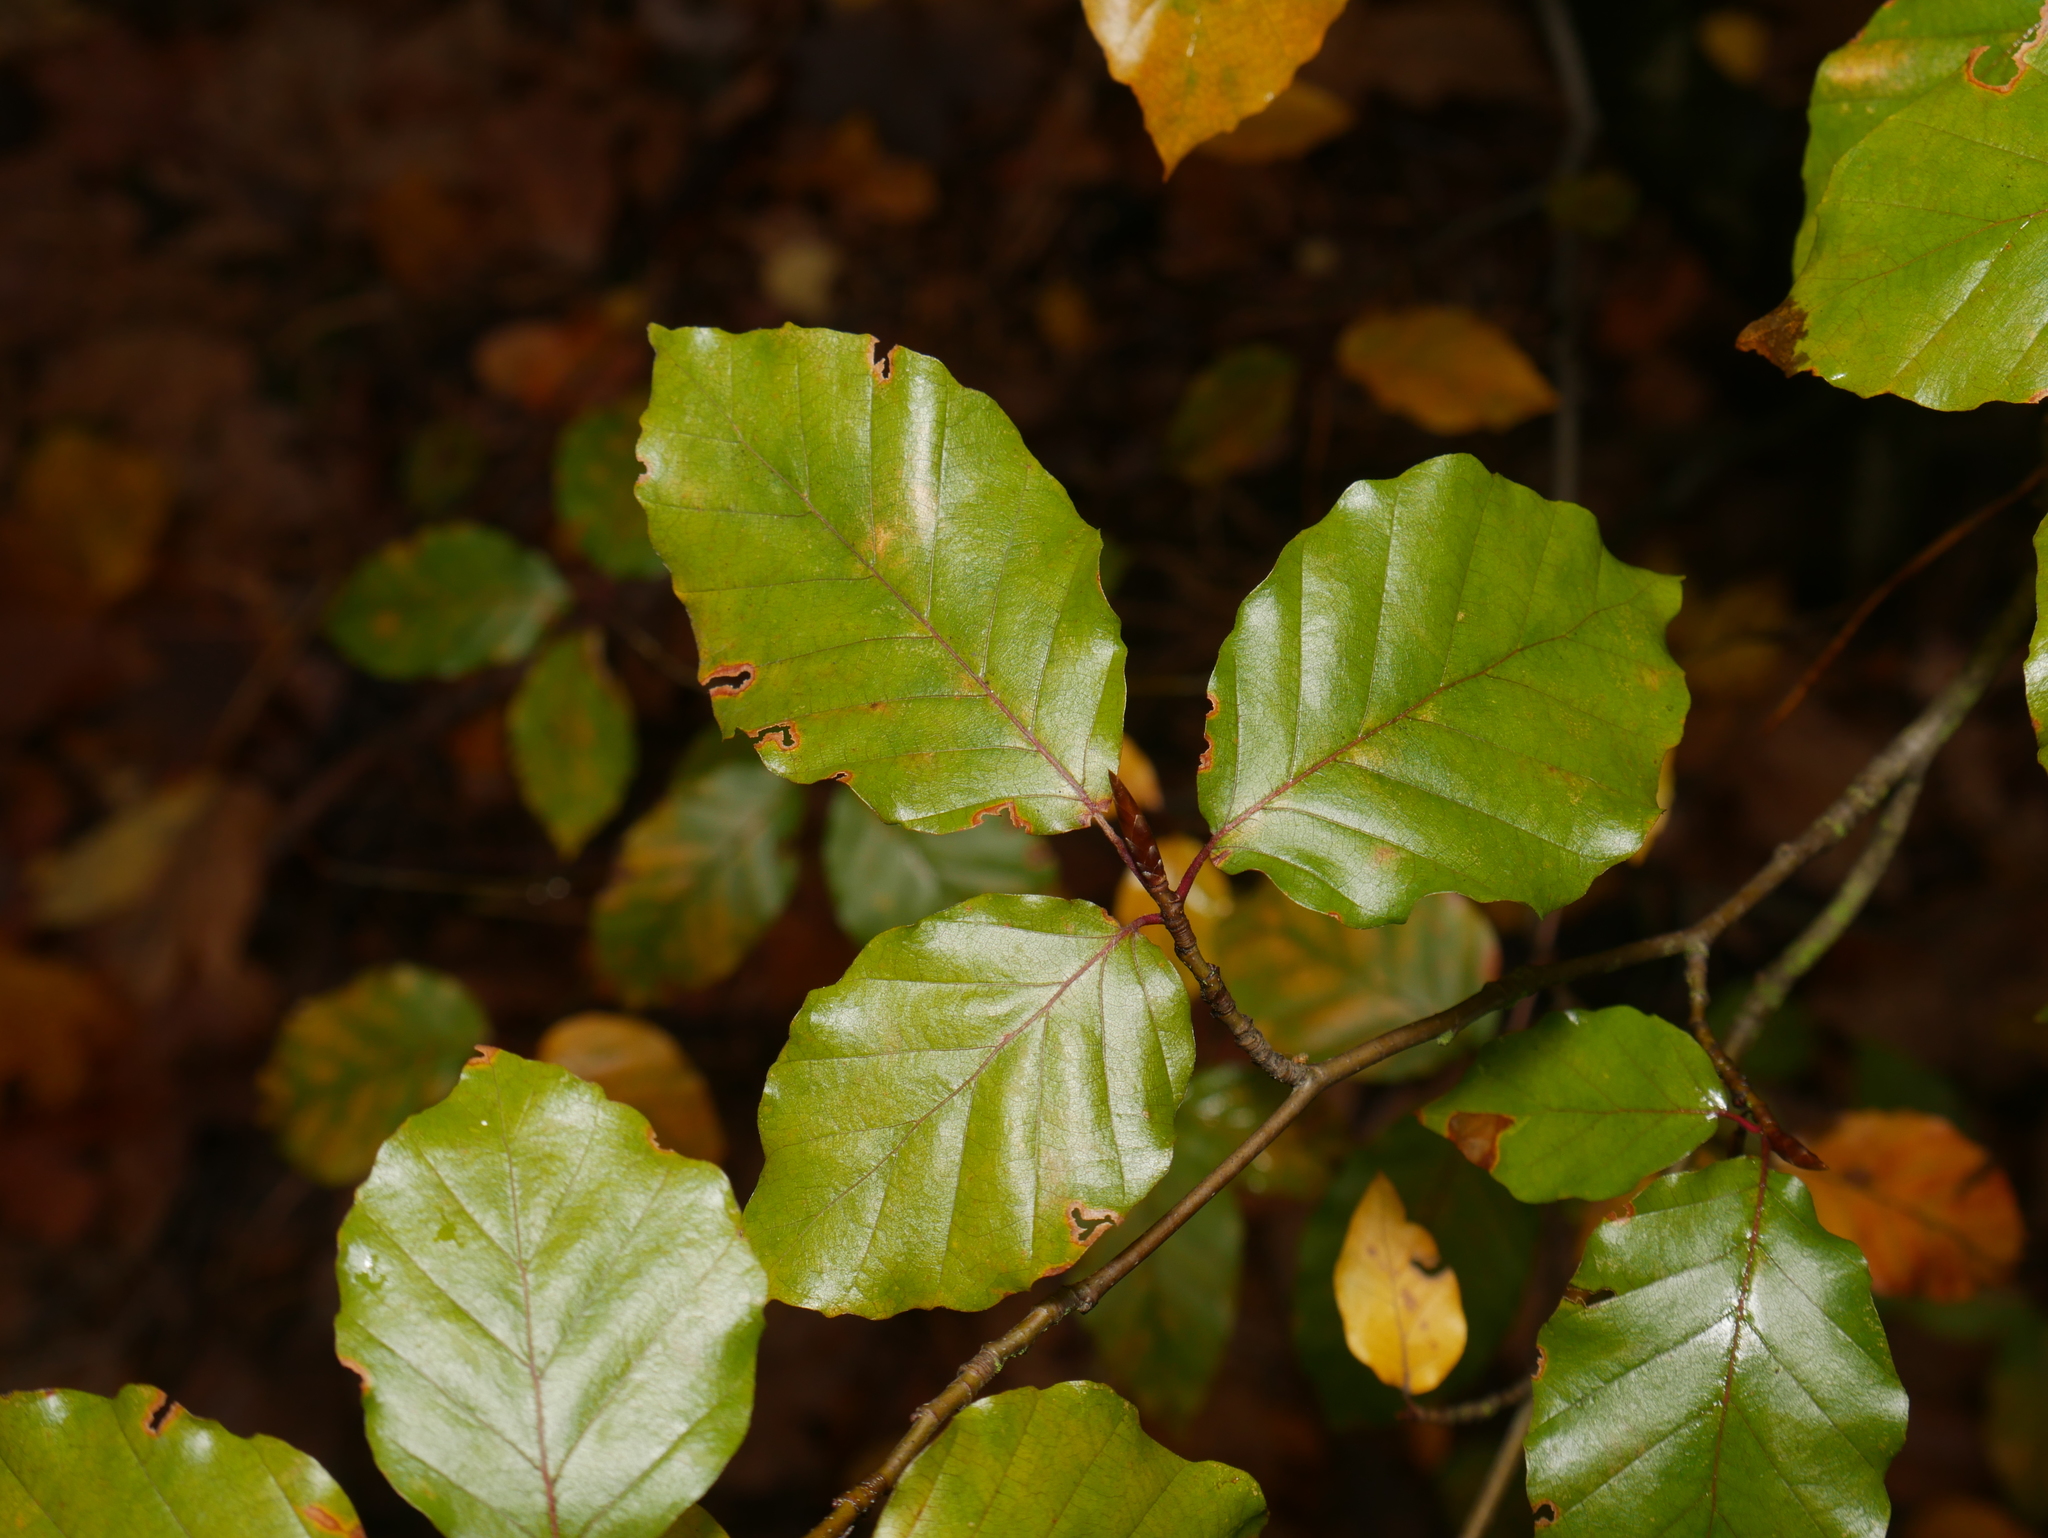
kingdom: Plantae
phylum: Tracheophyta
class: Magnoliopsida
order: Fagales
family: Fagaceae
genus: Fagus
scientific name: Fagus sylvatica
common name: Beech
